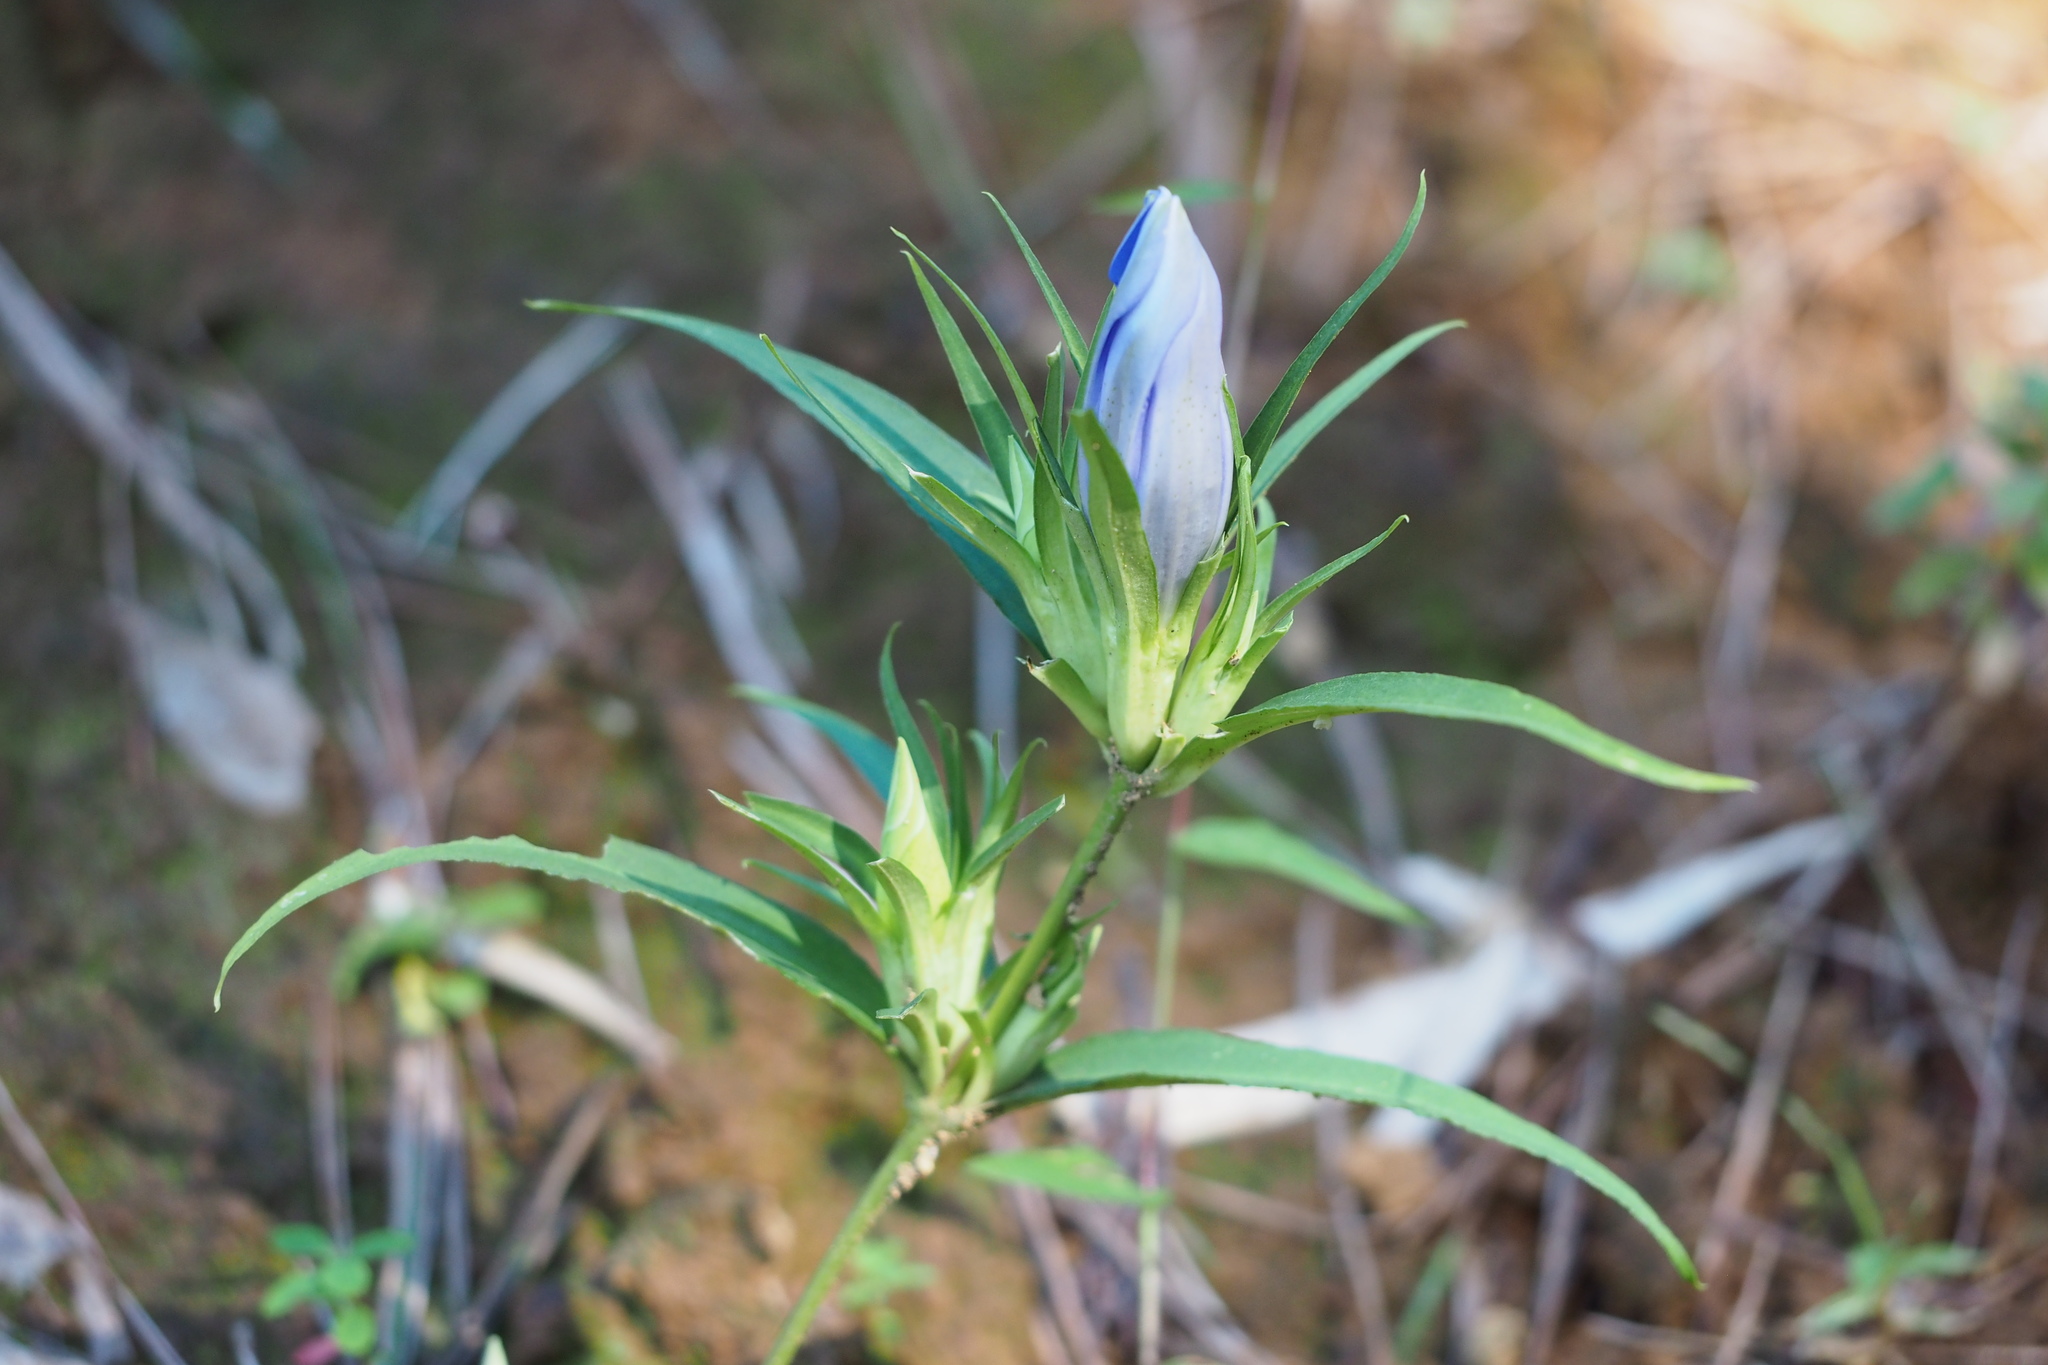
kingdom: Plantae
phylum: Tracheophyta
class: Magnoliopsida
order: Gentianales
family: Gentianaceae
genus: Gentiana
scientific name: Gentiana scabra
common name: Scabrous gentian
